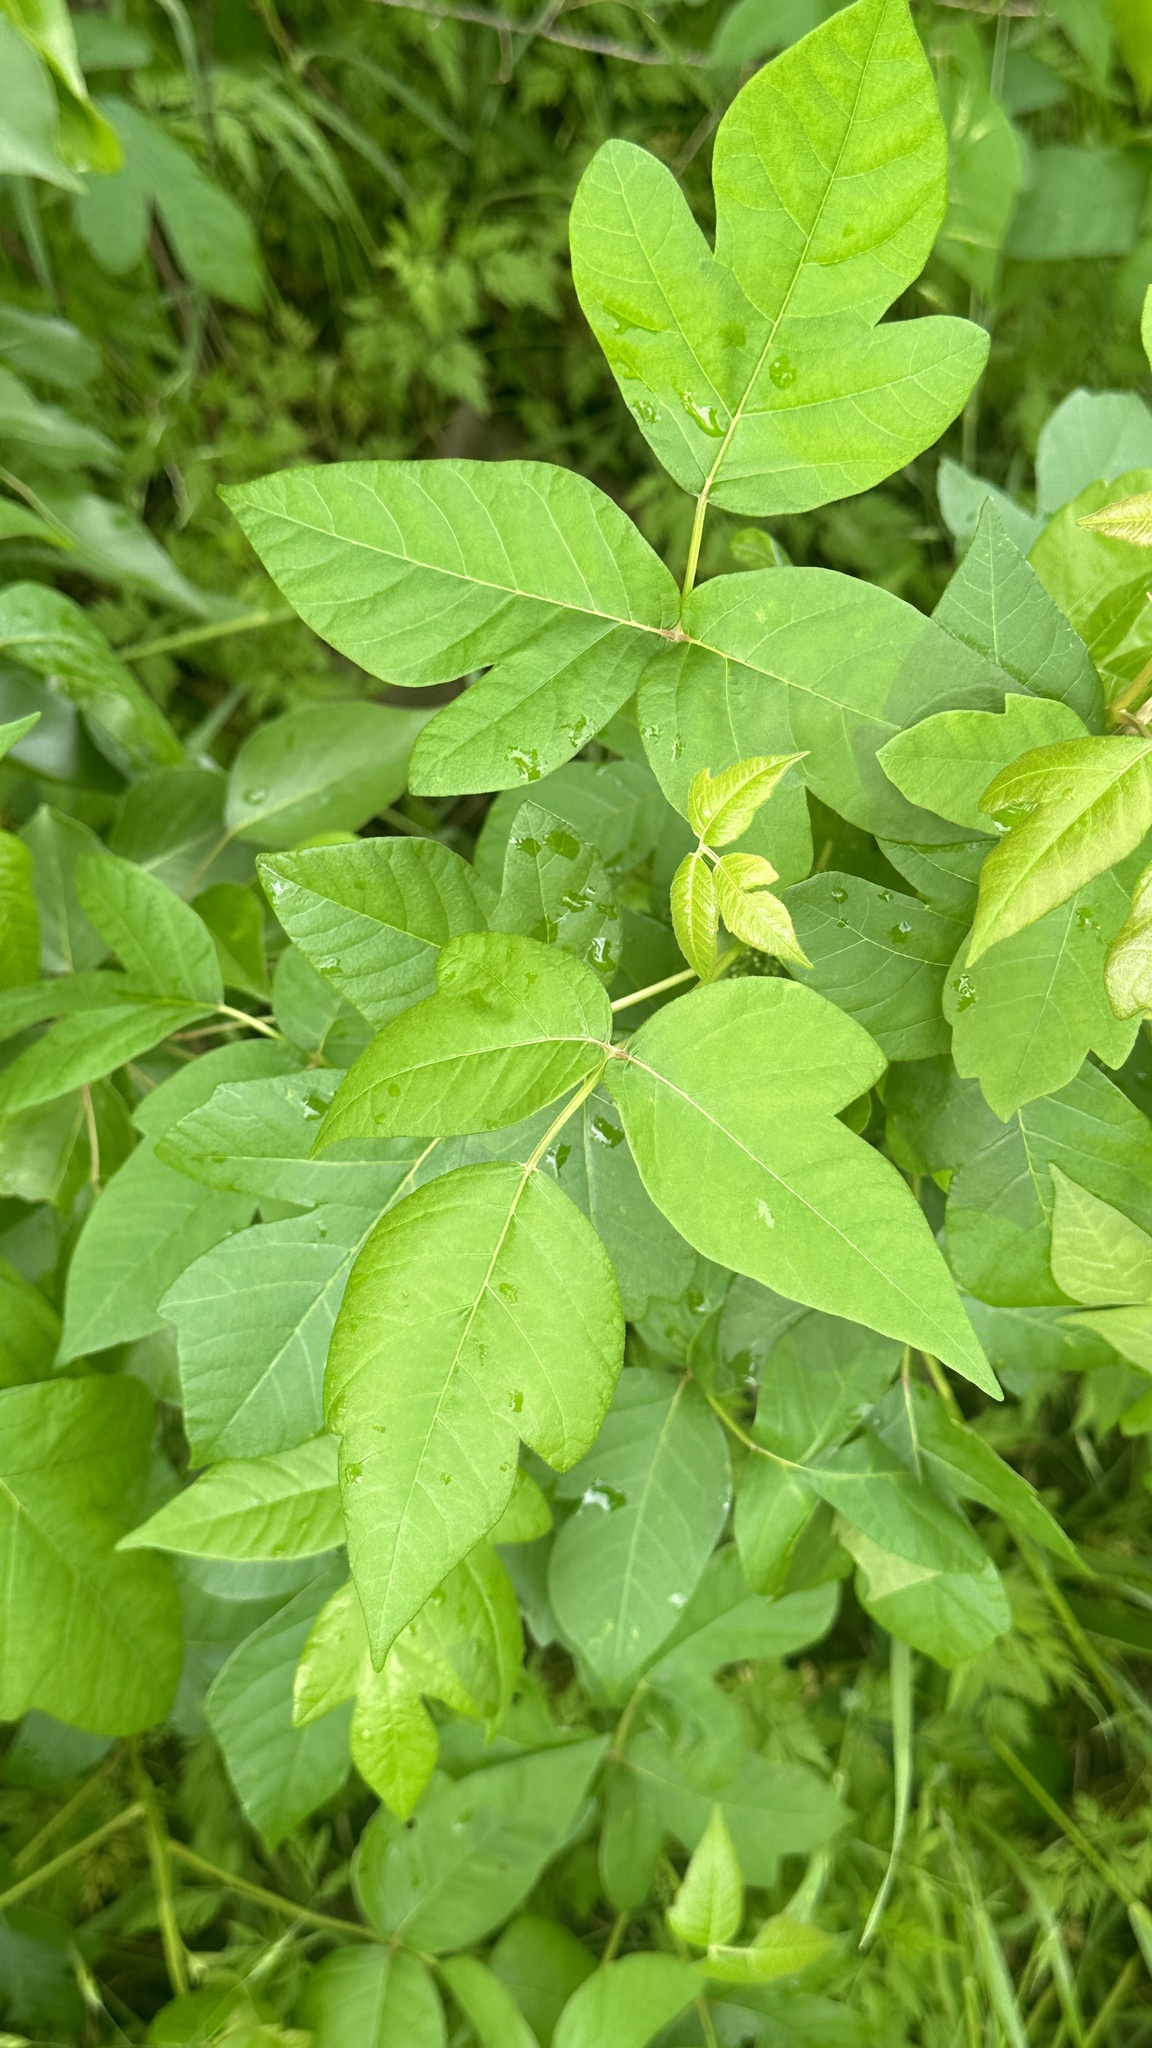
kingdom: Plantae
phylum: Tracheophyta
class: Magnoliopsida
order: Sapindales
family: Anacardiaceae
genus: Toxicodendron
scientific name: Toxicodendron radicans
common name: Poison ivy
